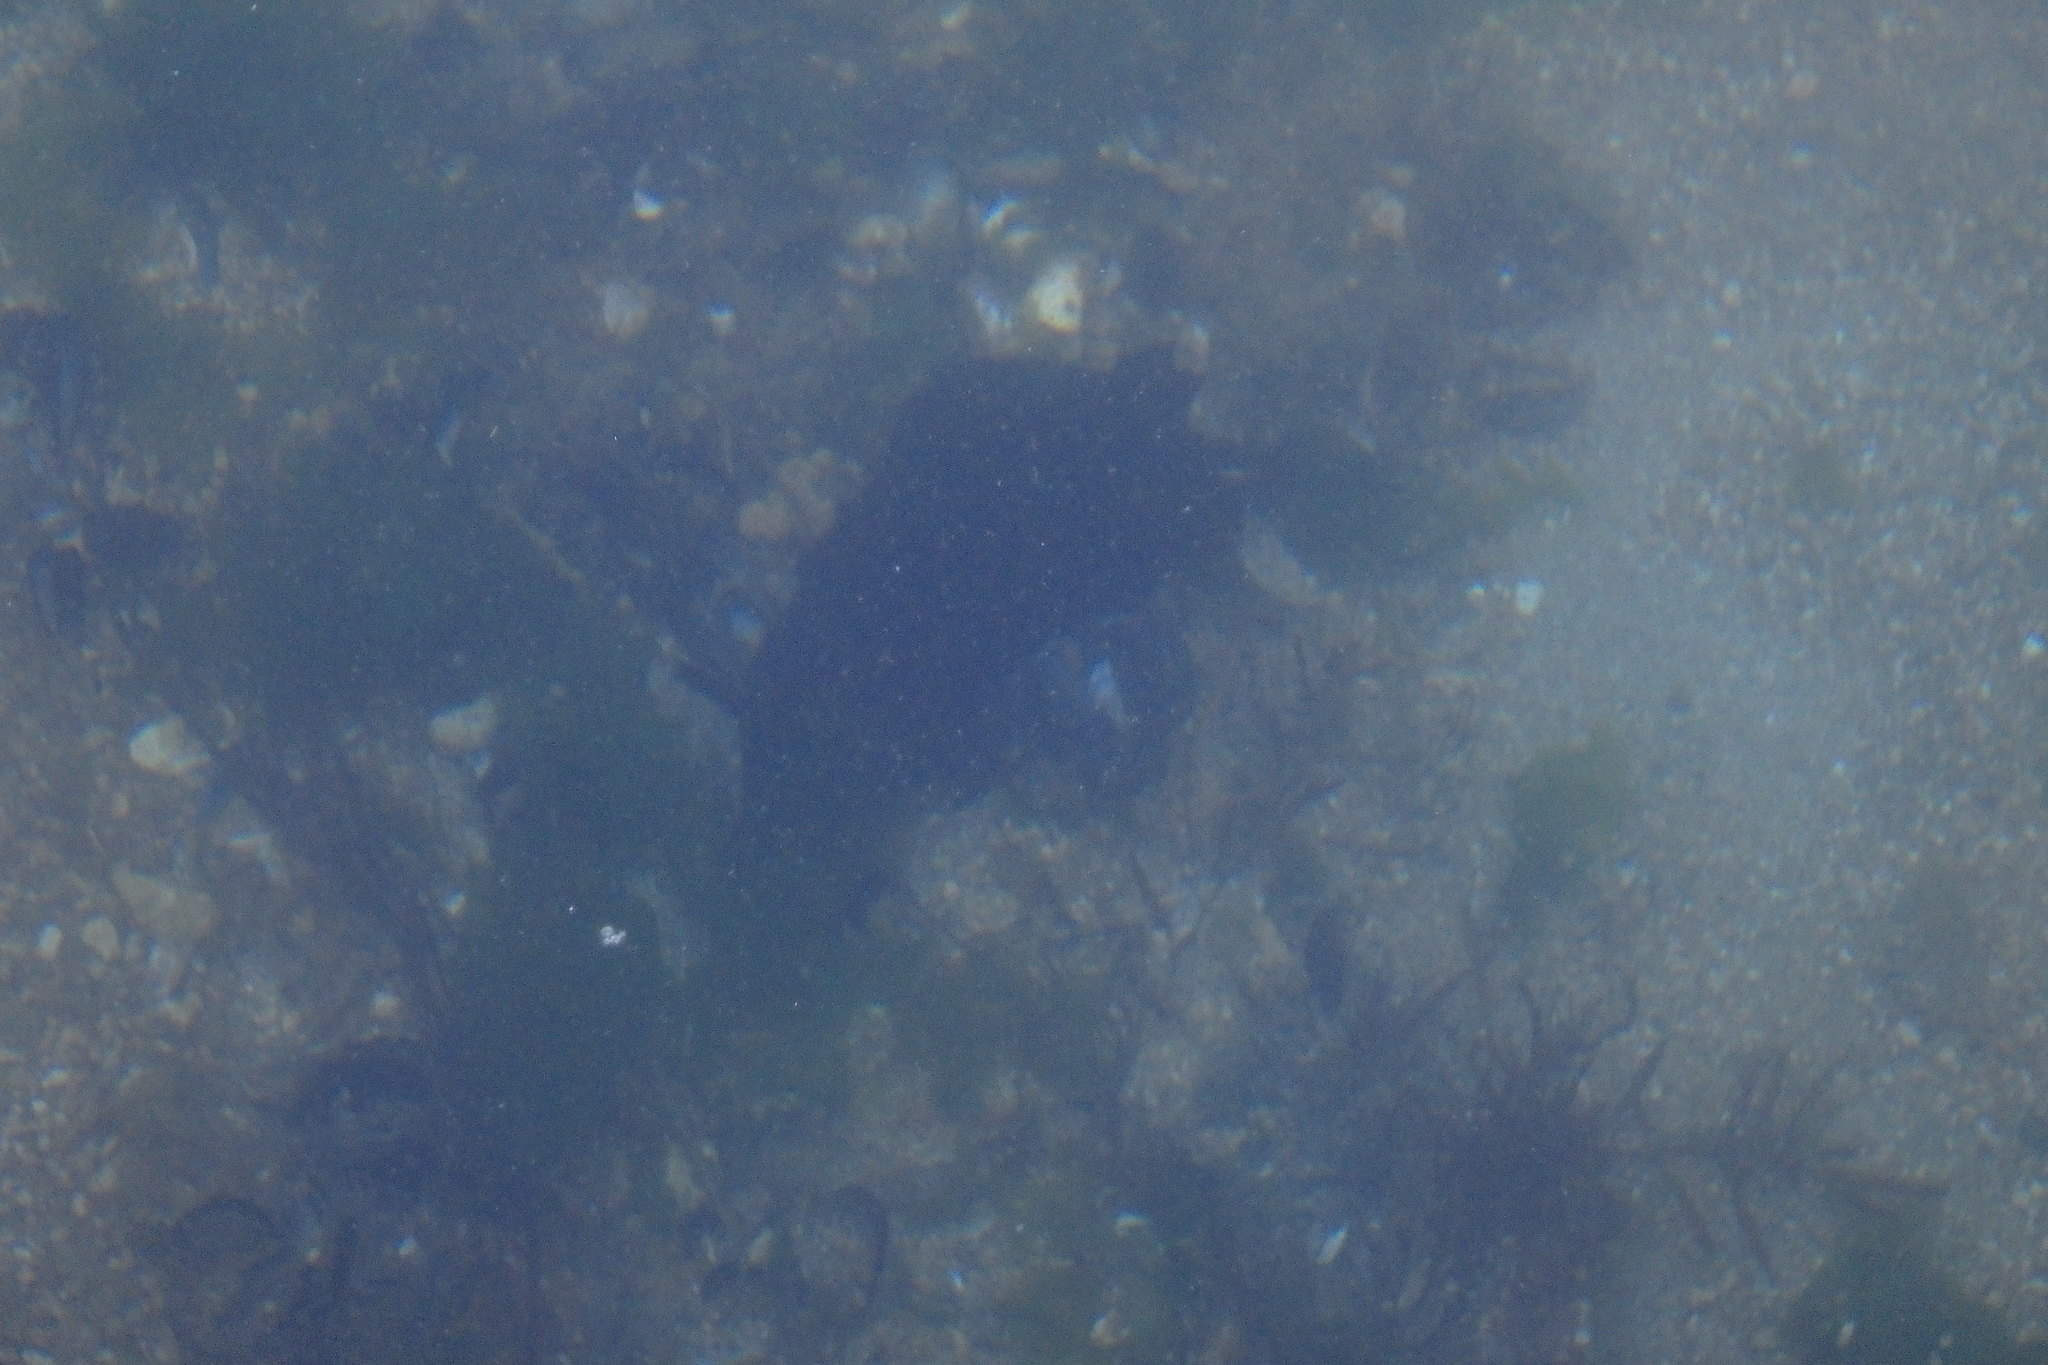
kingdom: Animalia
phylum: Mollusca
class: Gastropoda
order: Aplysiida
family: Aplysiidae
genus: Aplysia
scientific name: Aplysia kurodai
